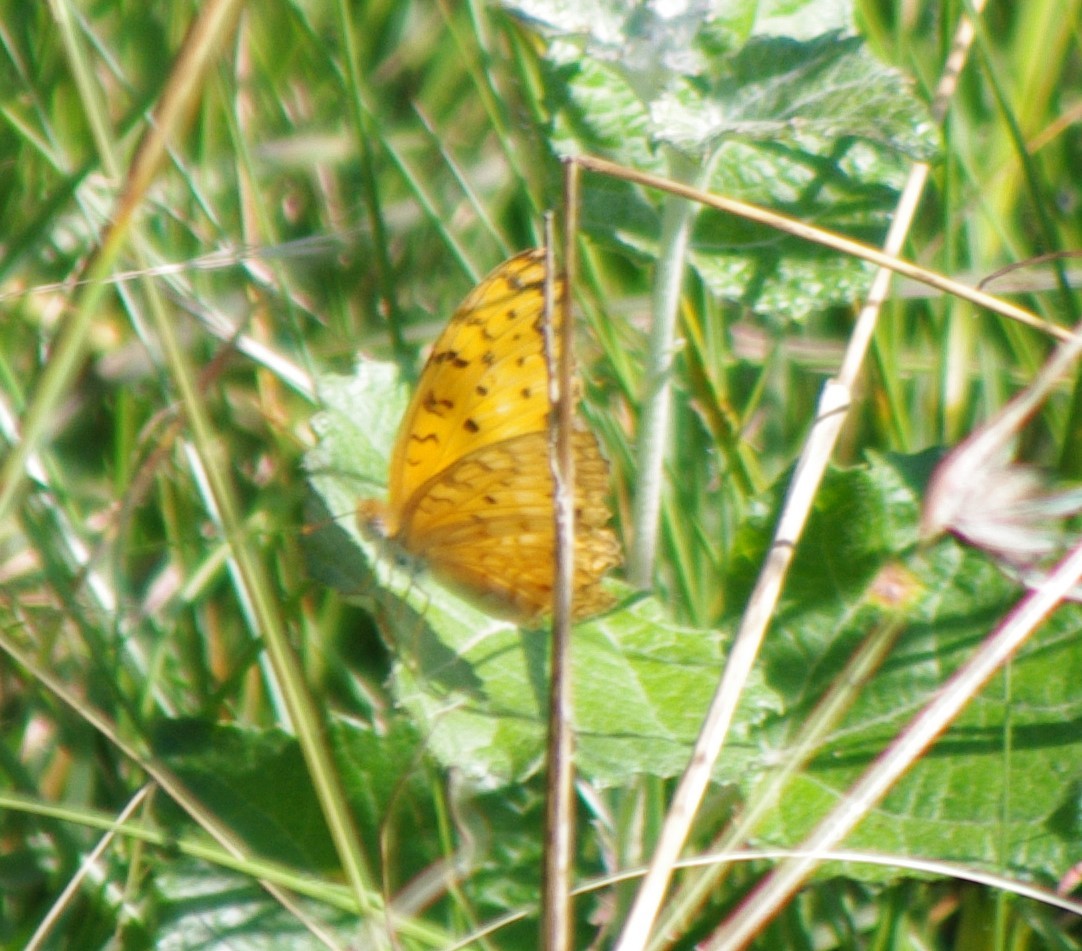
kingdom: Animalia
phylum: Arthropoda
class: Insecta
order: Lepidoptera
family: Nymphalidae
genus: Phalanta
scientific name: Phalanta phalantha
